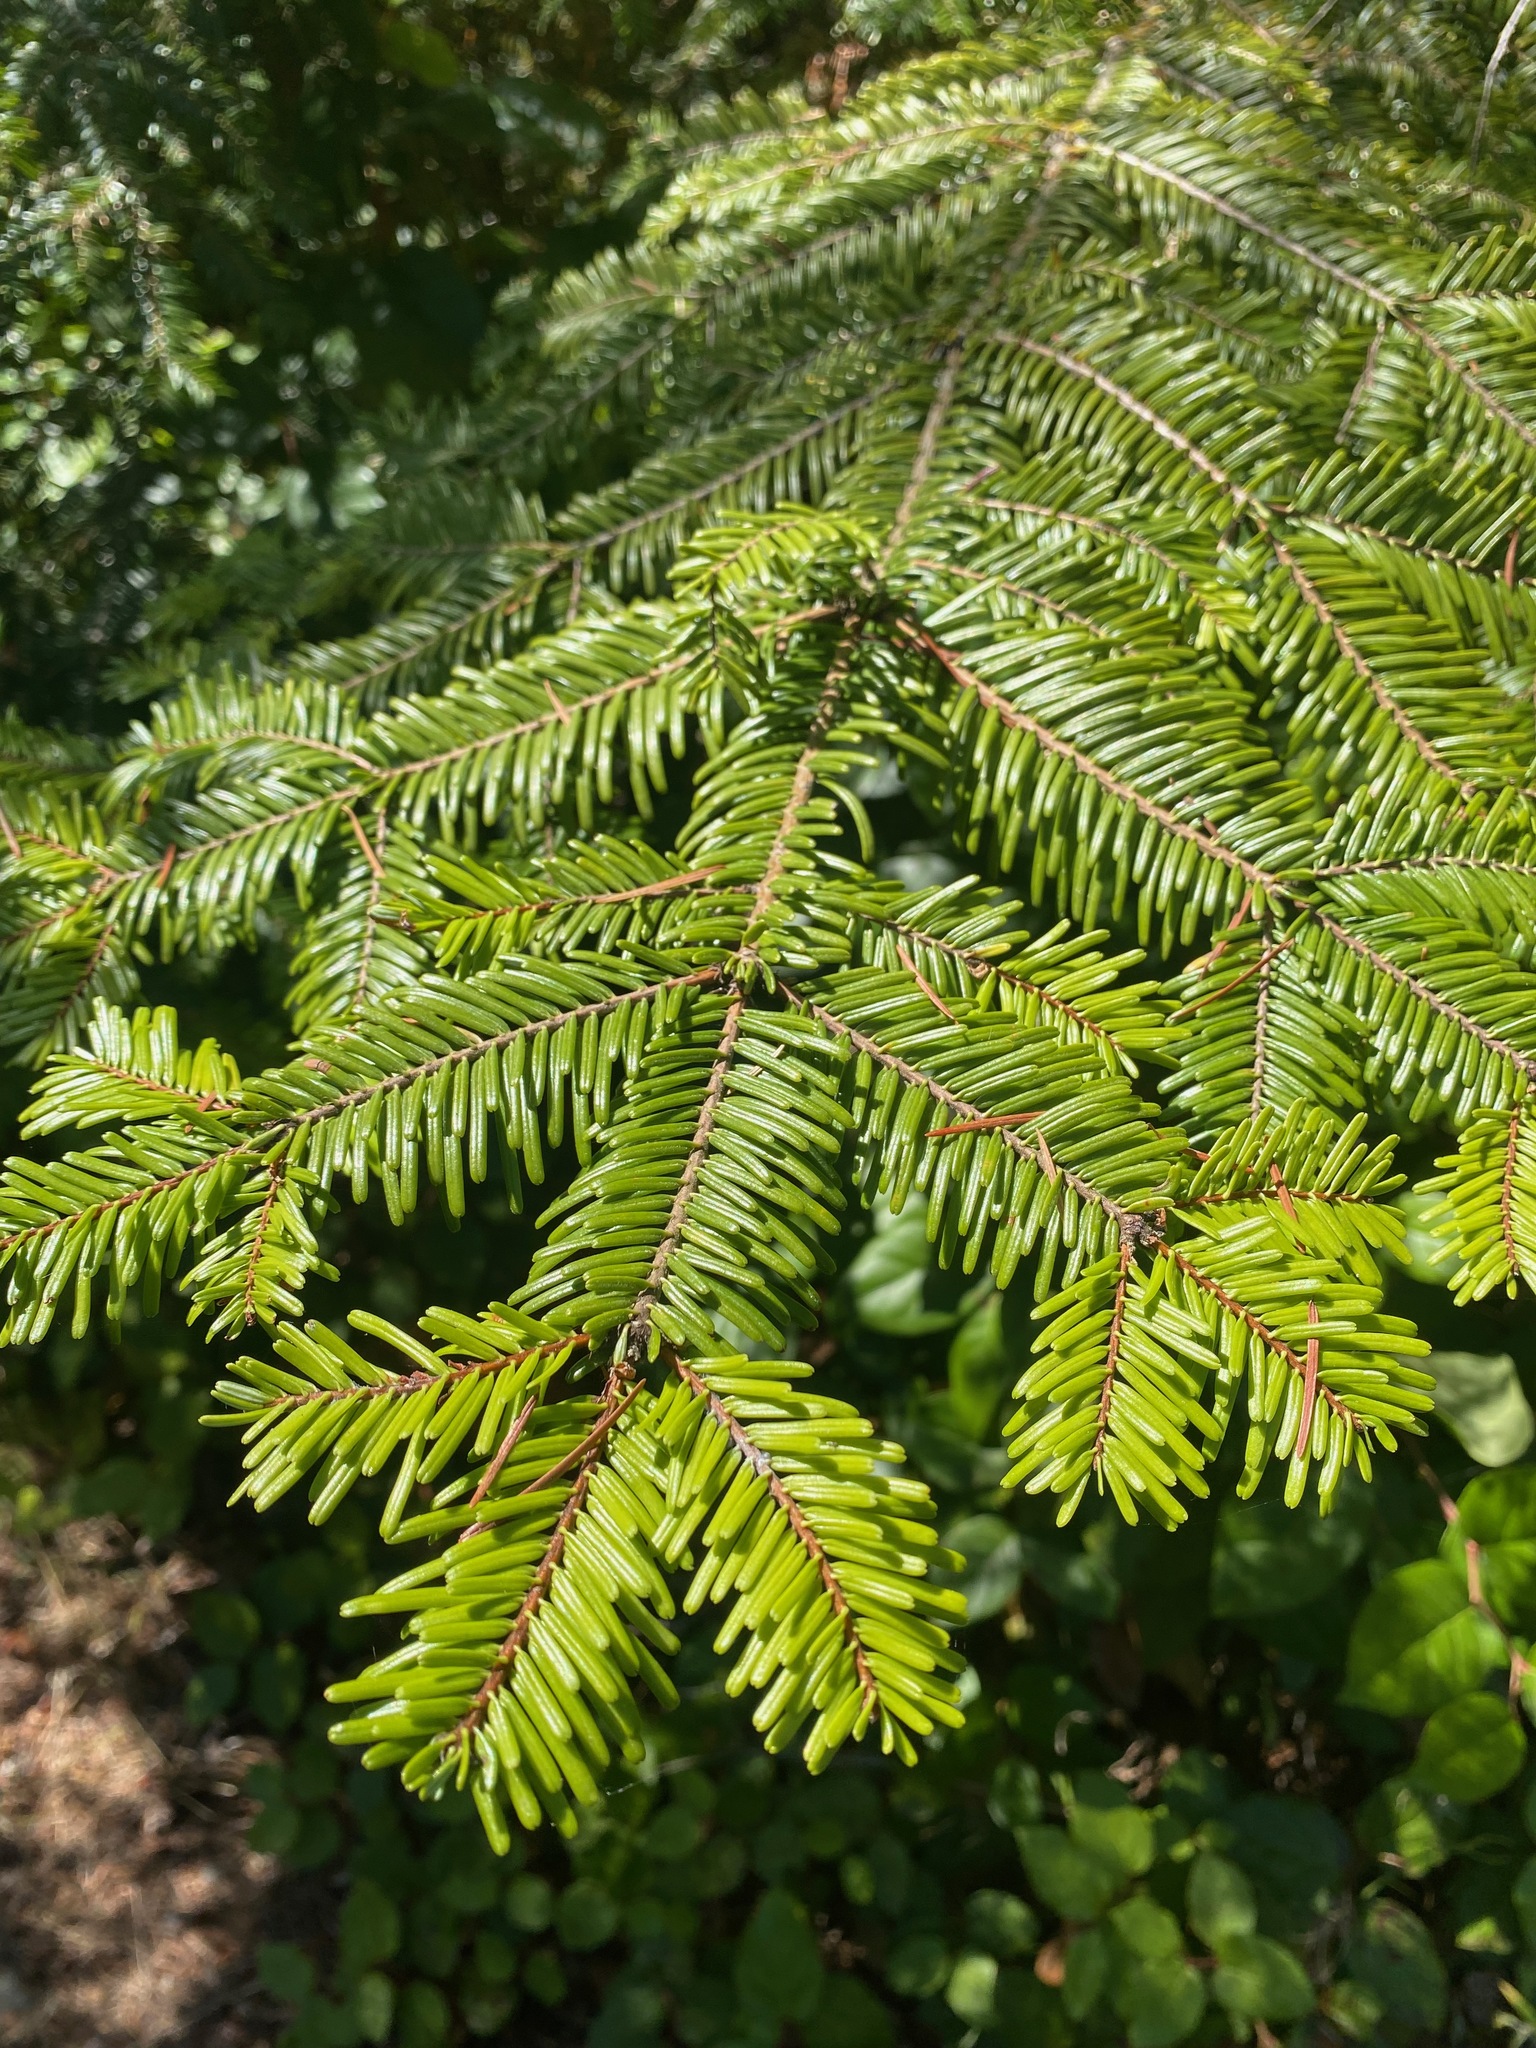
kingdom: Plantae
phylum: Tracheophyta
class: Pinopsida
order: Pinales
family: Pinaceae
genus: Abies
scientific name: Abies grandis
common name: Giant fir
